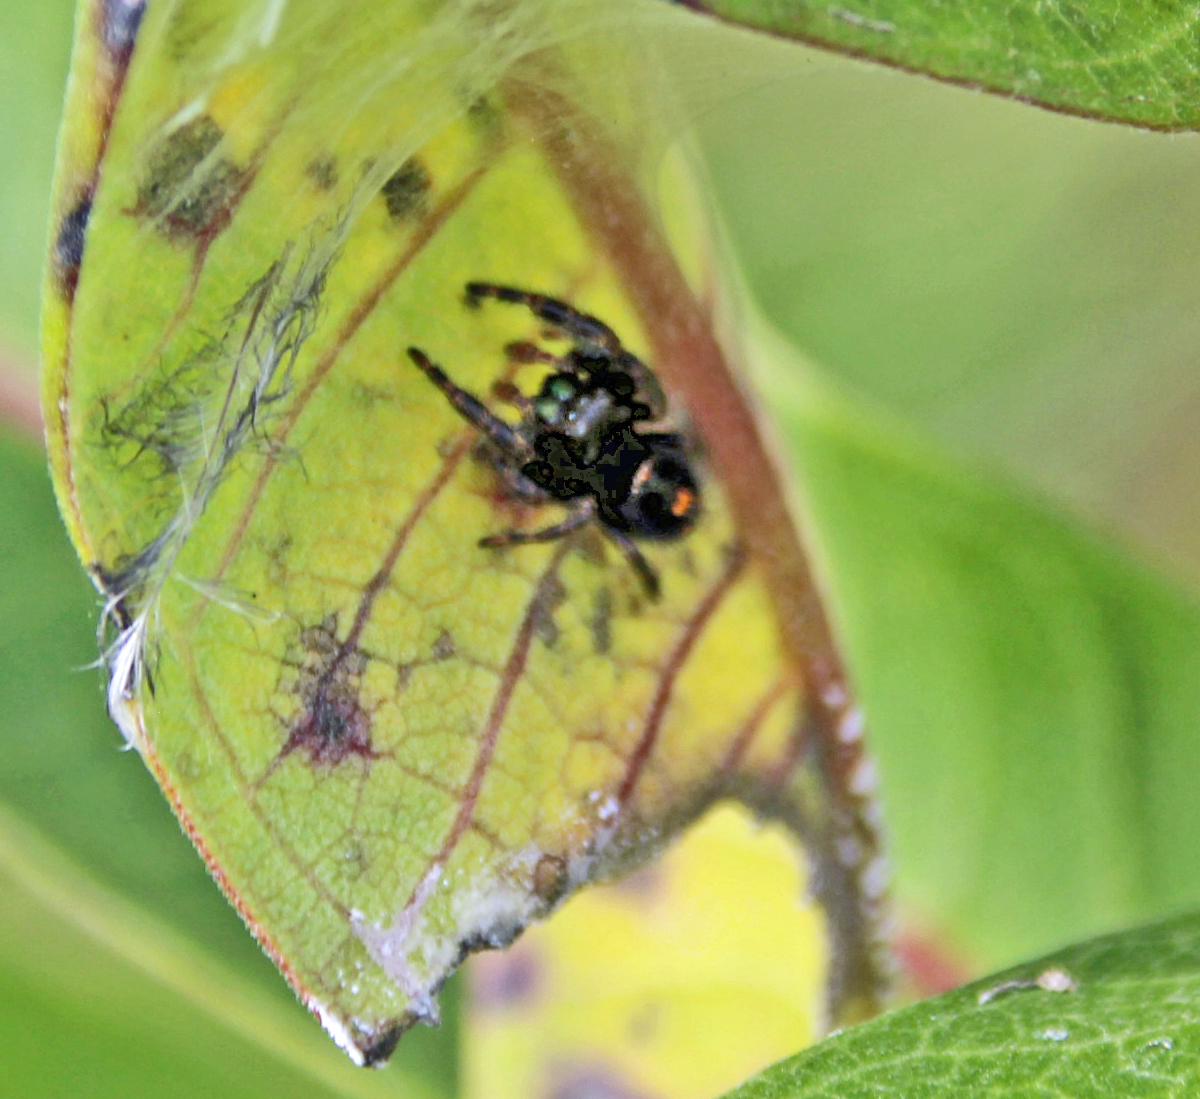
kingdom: Animalia
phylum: Arthropoda
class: Arachnida
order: Araneae
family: Salticidae
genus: Phidippus
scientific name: Phidippus audax
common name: Bold jumper
